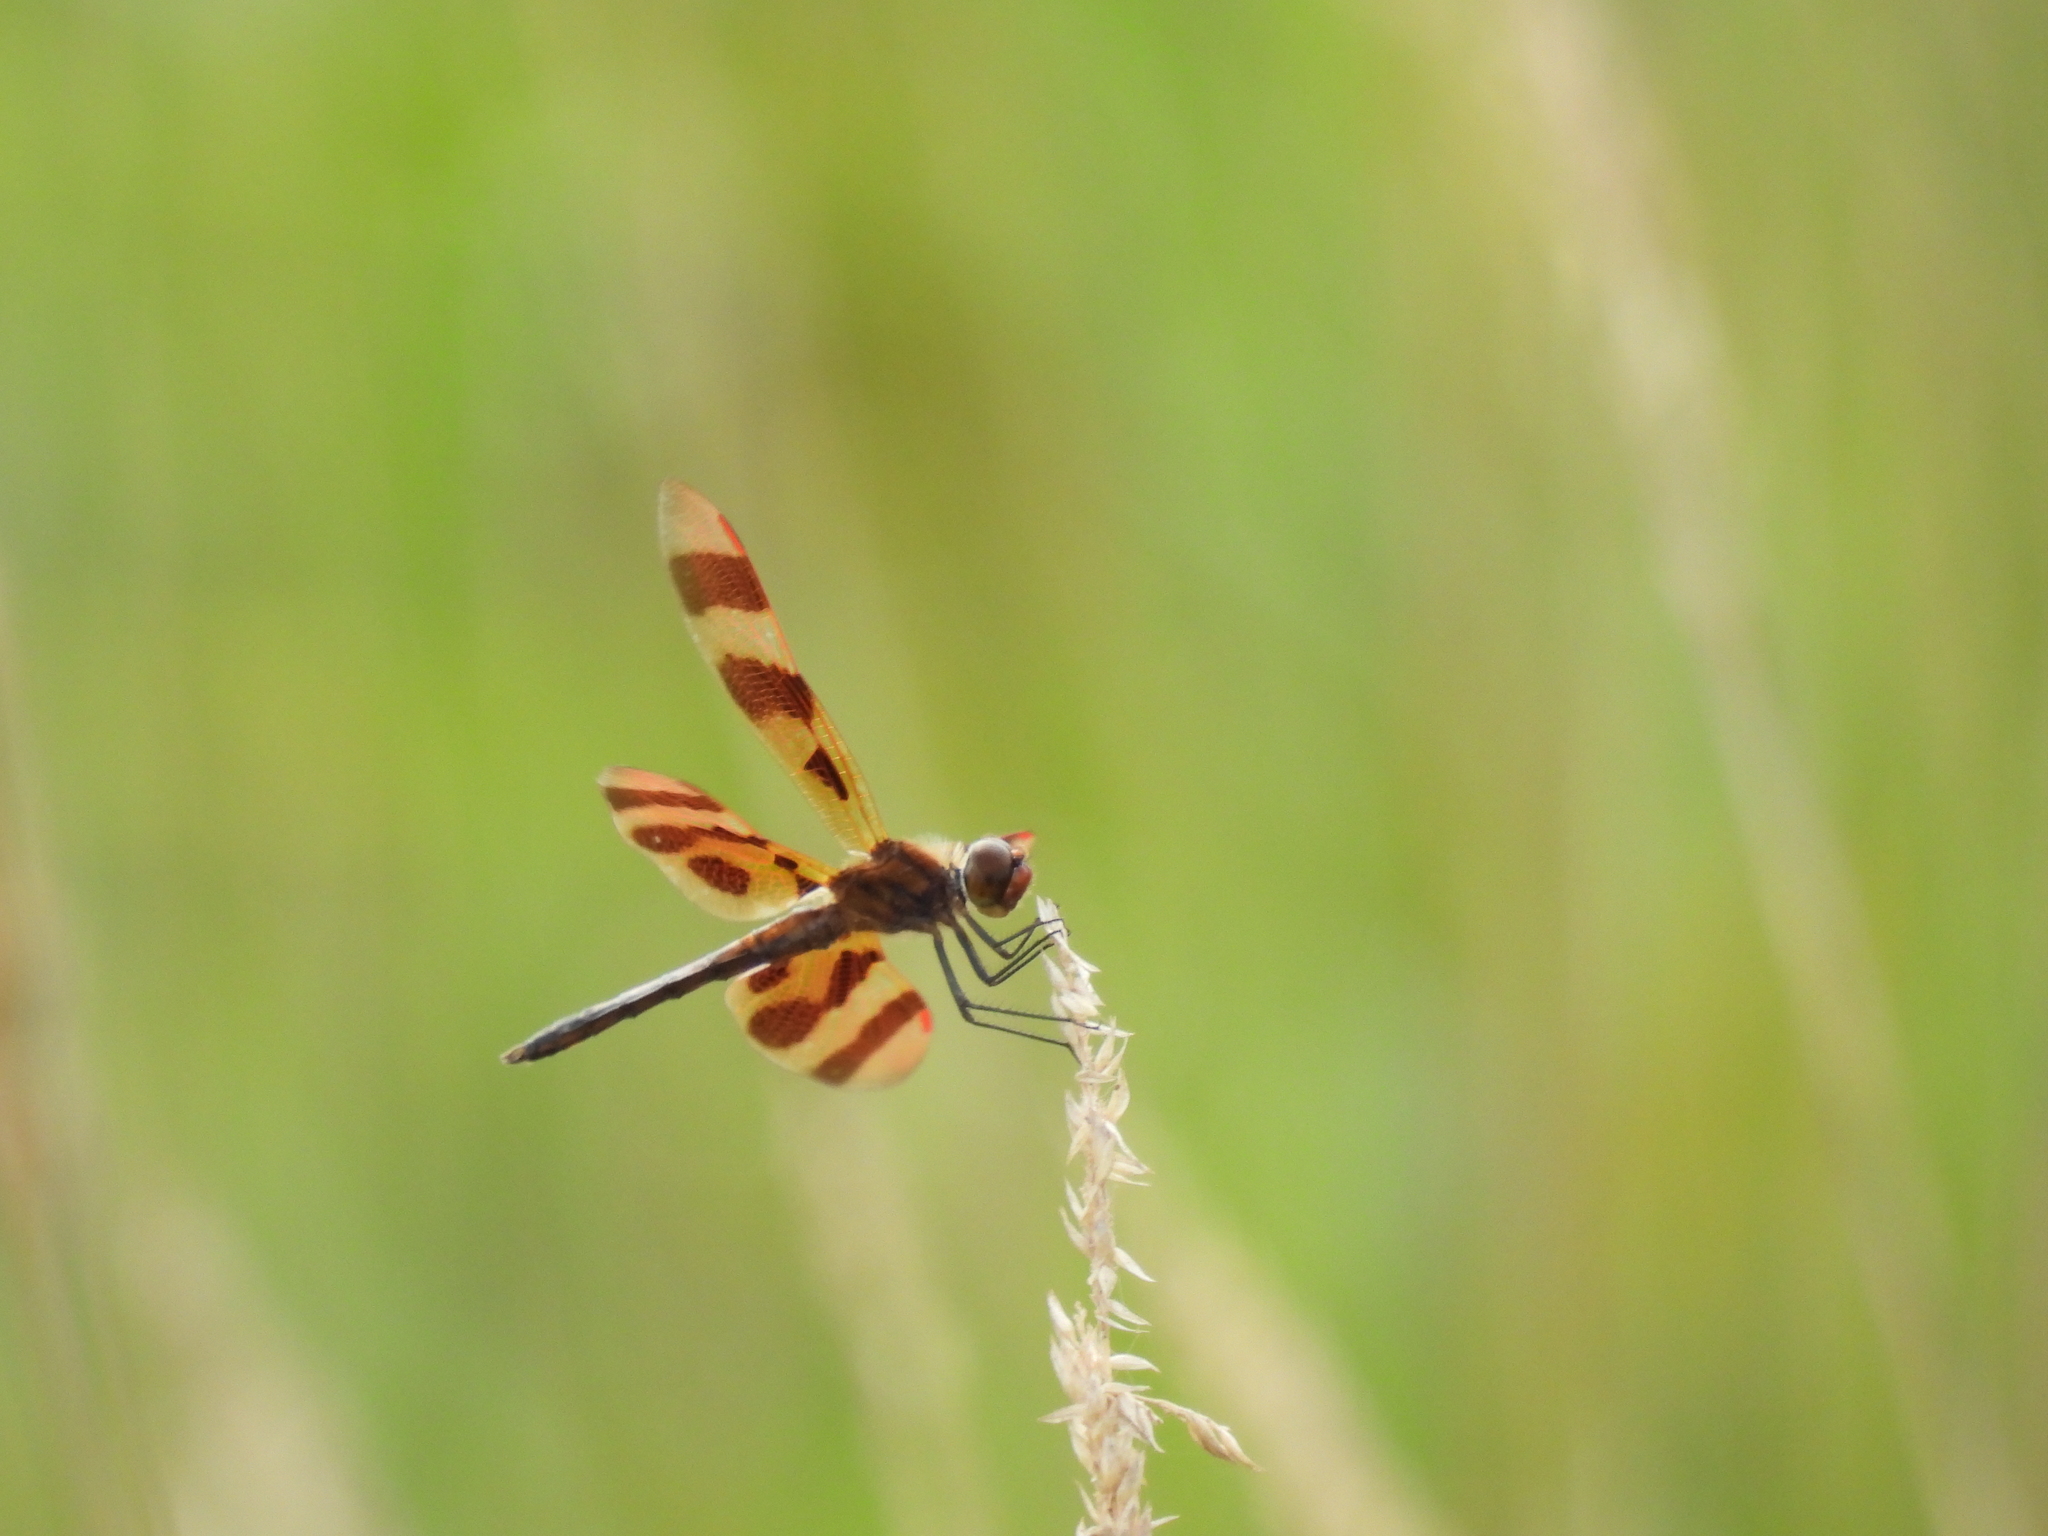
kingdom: Animalia
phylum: Arthropoda
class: Insecta
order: Odonata
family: Libellulidae
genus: Celithemis
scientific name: Celithemis eponina
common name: Halloween pennant
